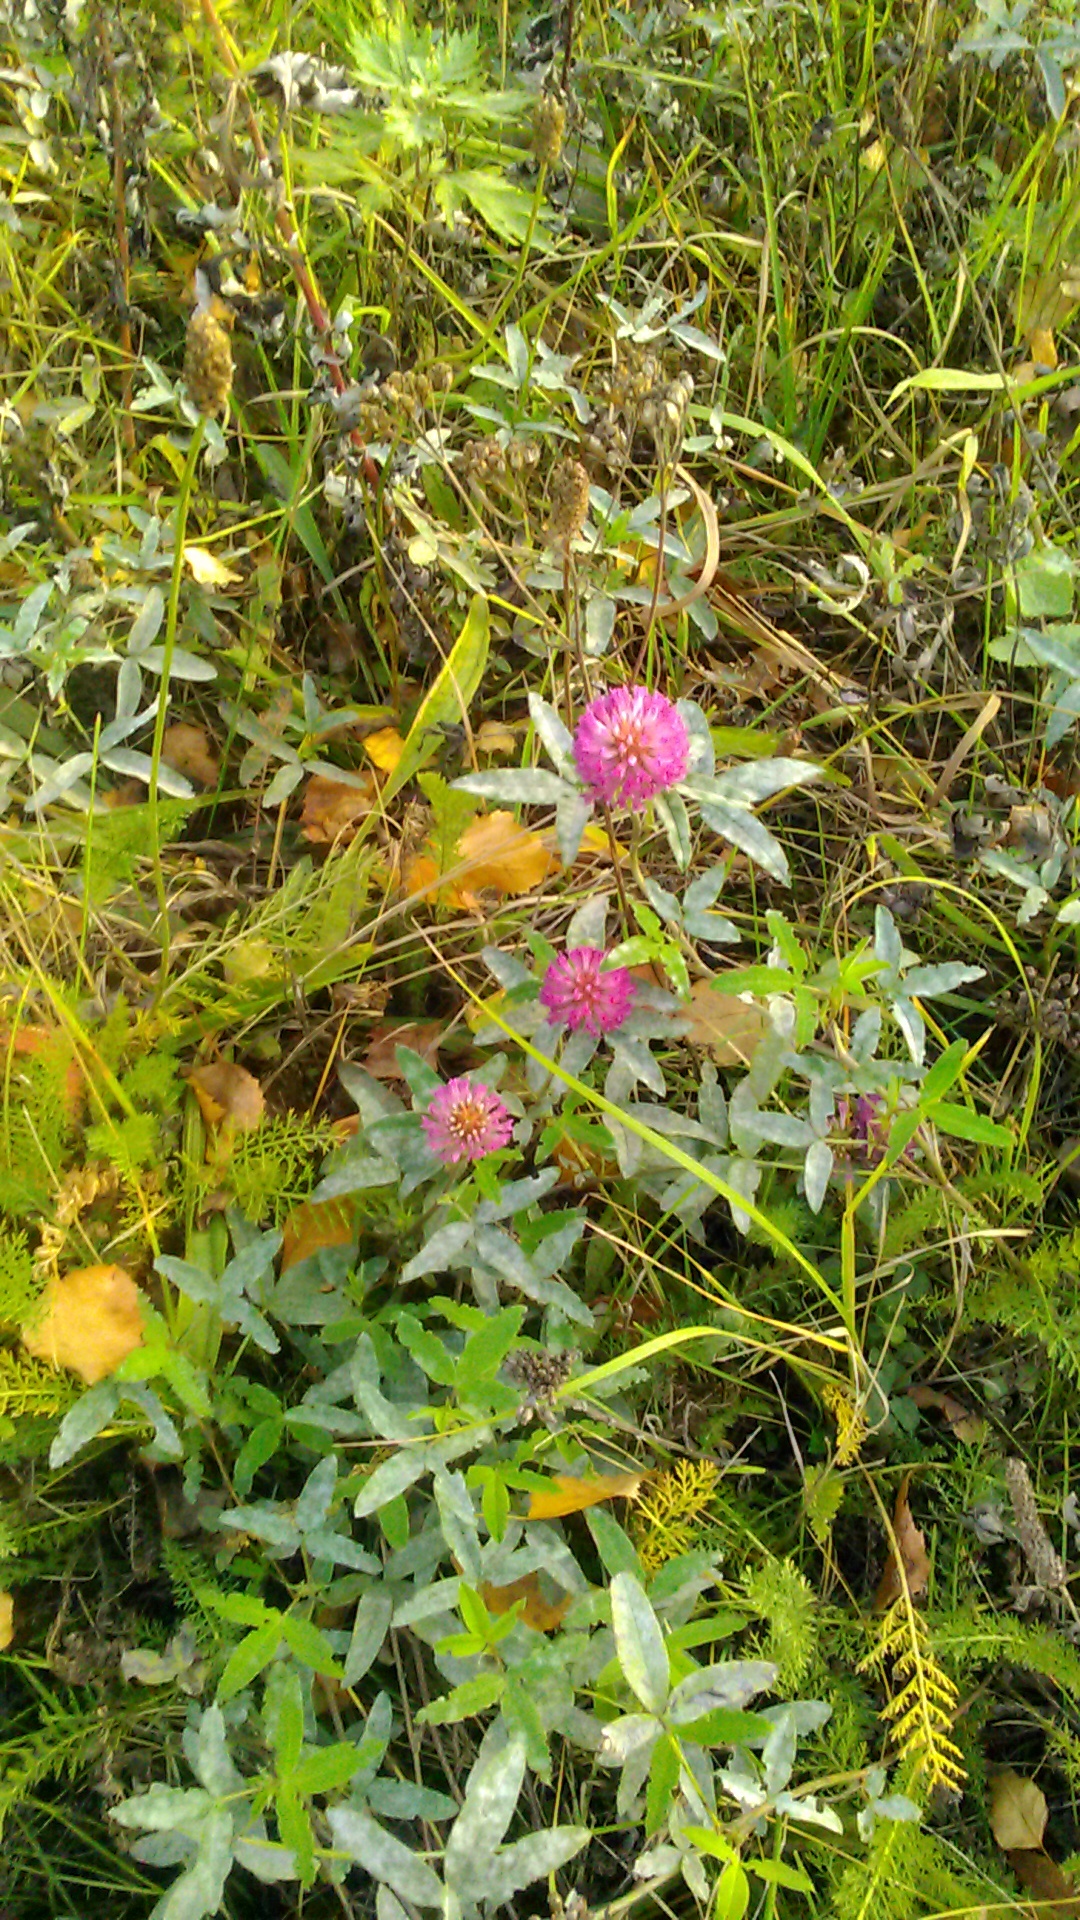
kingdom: Plantae
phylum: Tracheophyta
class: Magnoliopsida
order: Fabales
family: Fabaceae
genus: Trifolium
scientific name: Trifolium medium
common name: Zigzag clover
